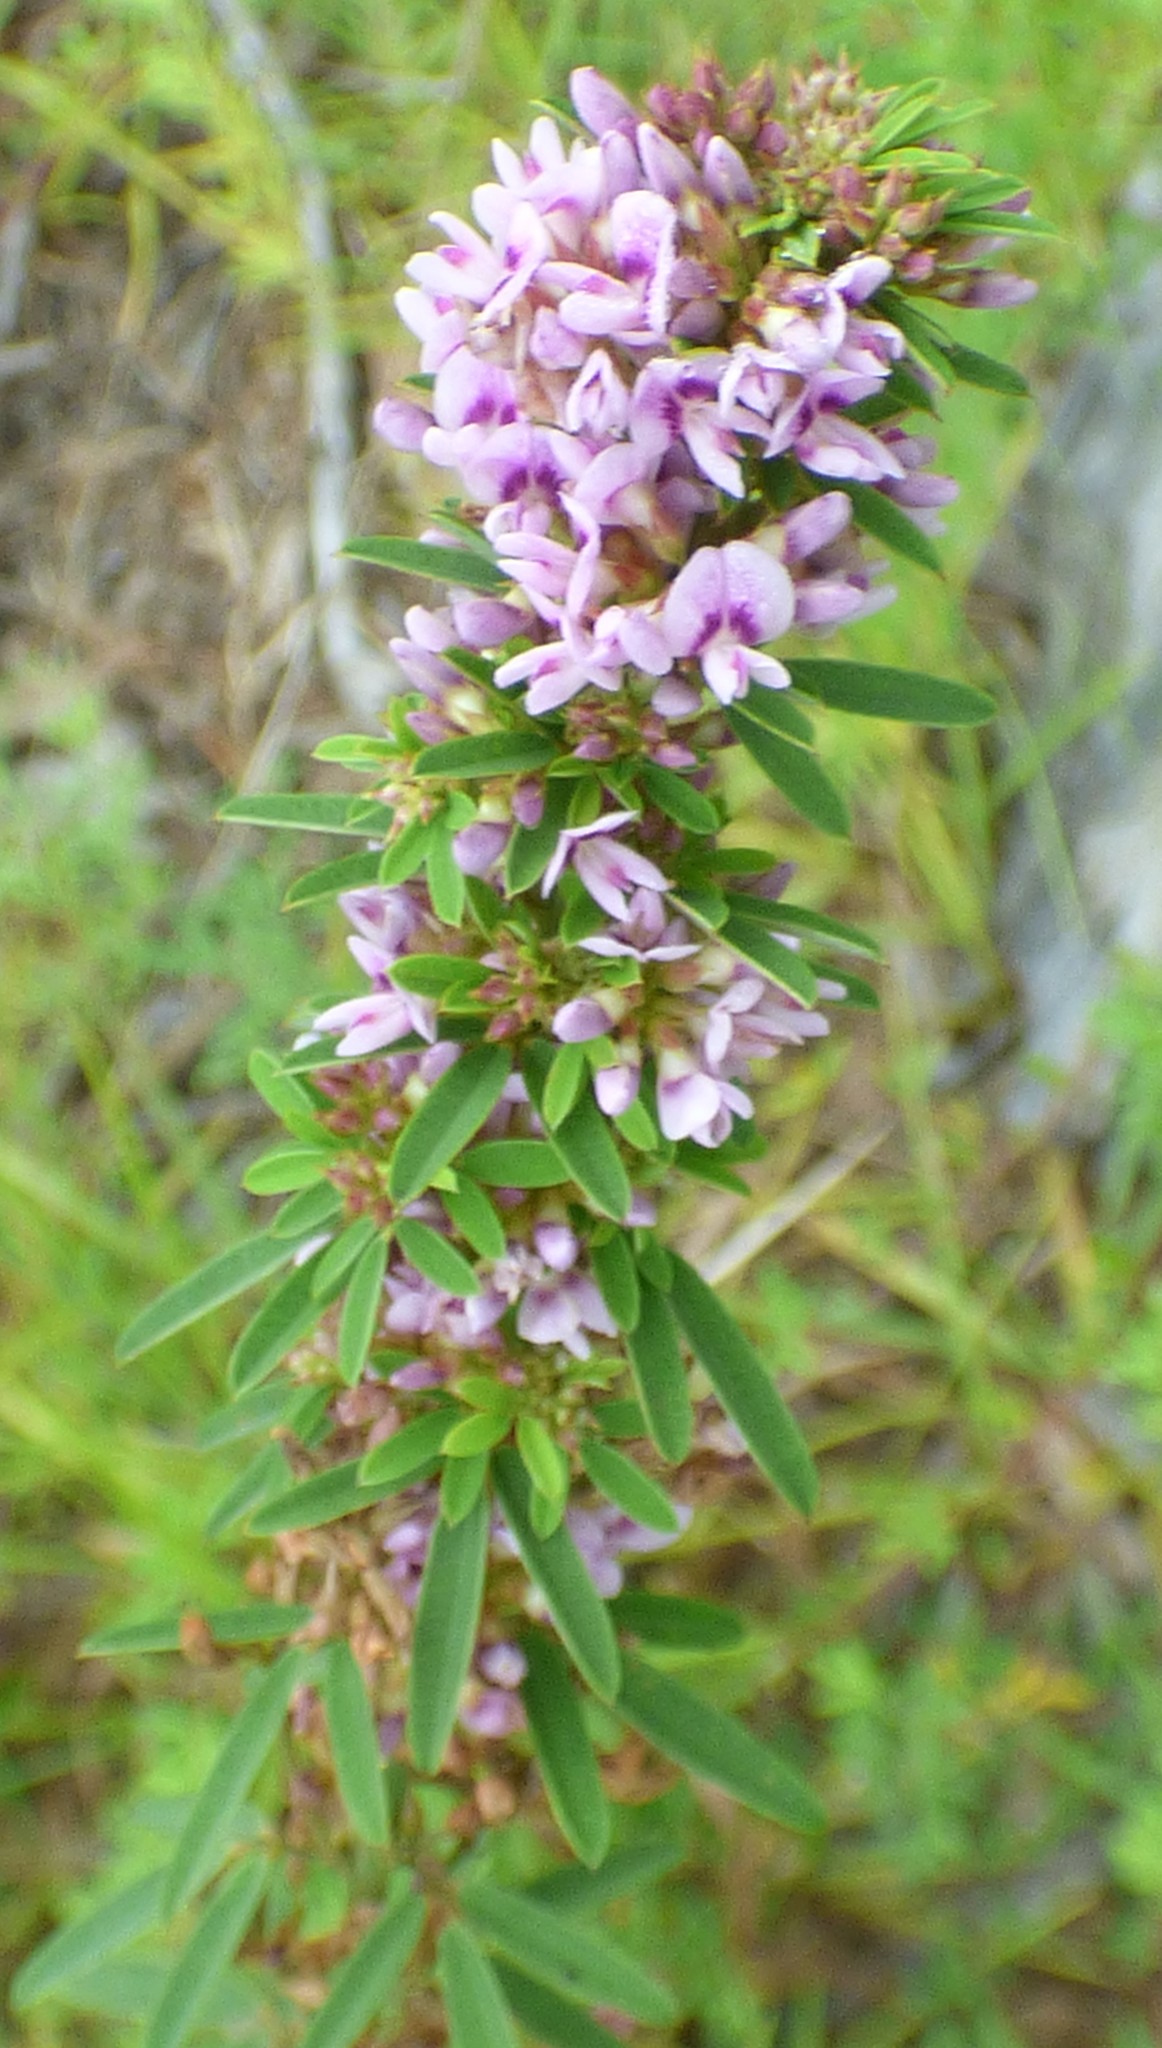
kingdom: Plantae
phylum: Tracheophyta
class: Magnoliopsida
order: Fabales
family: Fabaceae
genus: Lespedeza
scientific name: Lespedeza virginica
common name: Slender bush-clover
